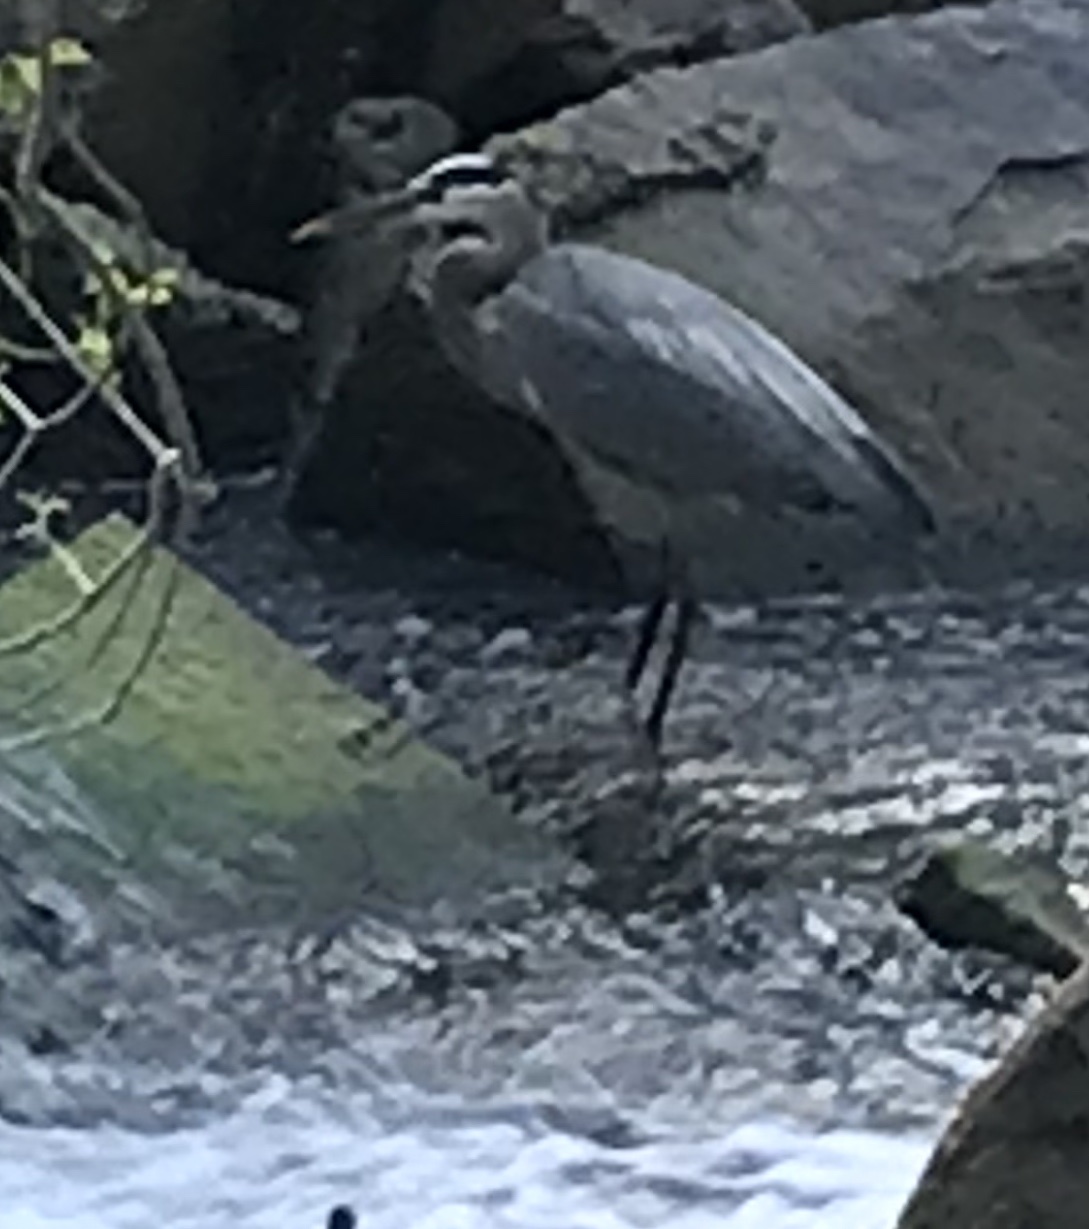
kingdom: Animalia
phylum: Chordata
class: Aves
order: Pelecaniformes
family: Ardeidae
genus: Ardea
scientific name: Ardea herodias
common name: Great blue heron
